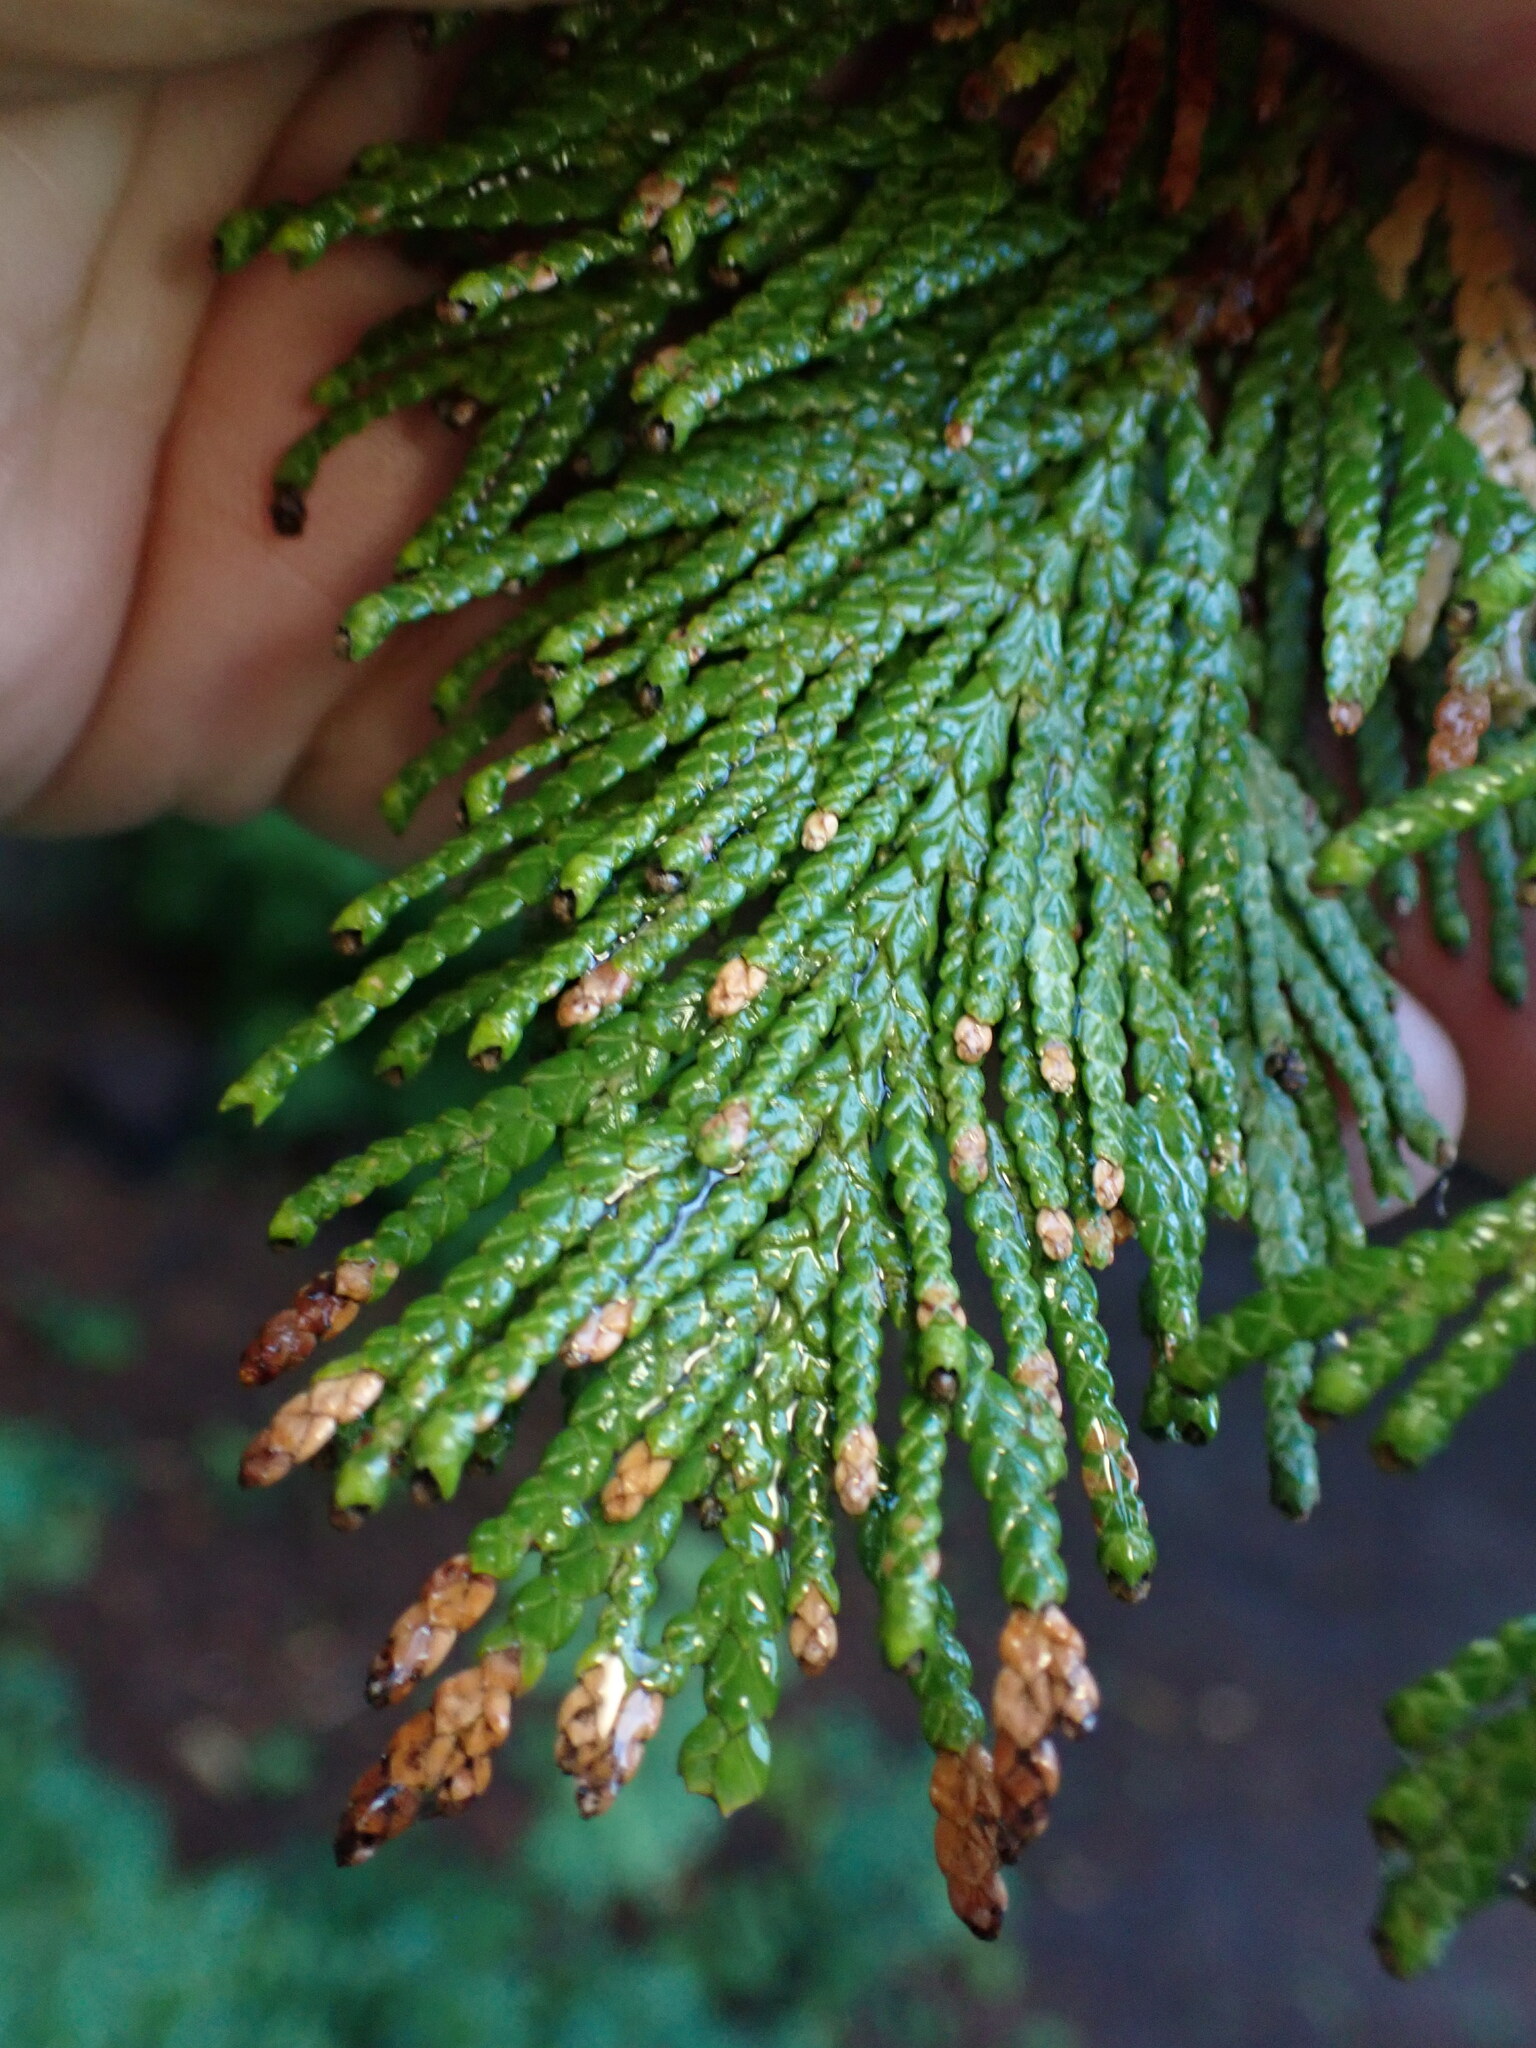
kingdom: Plantae
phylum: Tracheophyta
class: Pinopsida
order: Pinales
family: Cupressaceae
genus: Thuja
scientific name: Thuja plicata
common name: Western red-cedar
